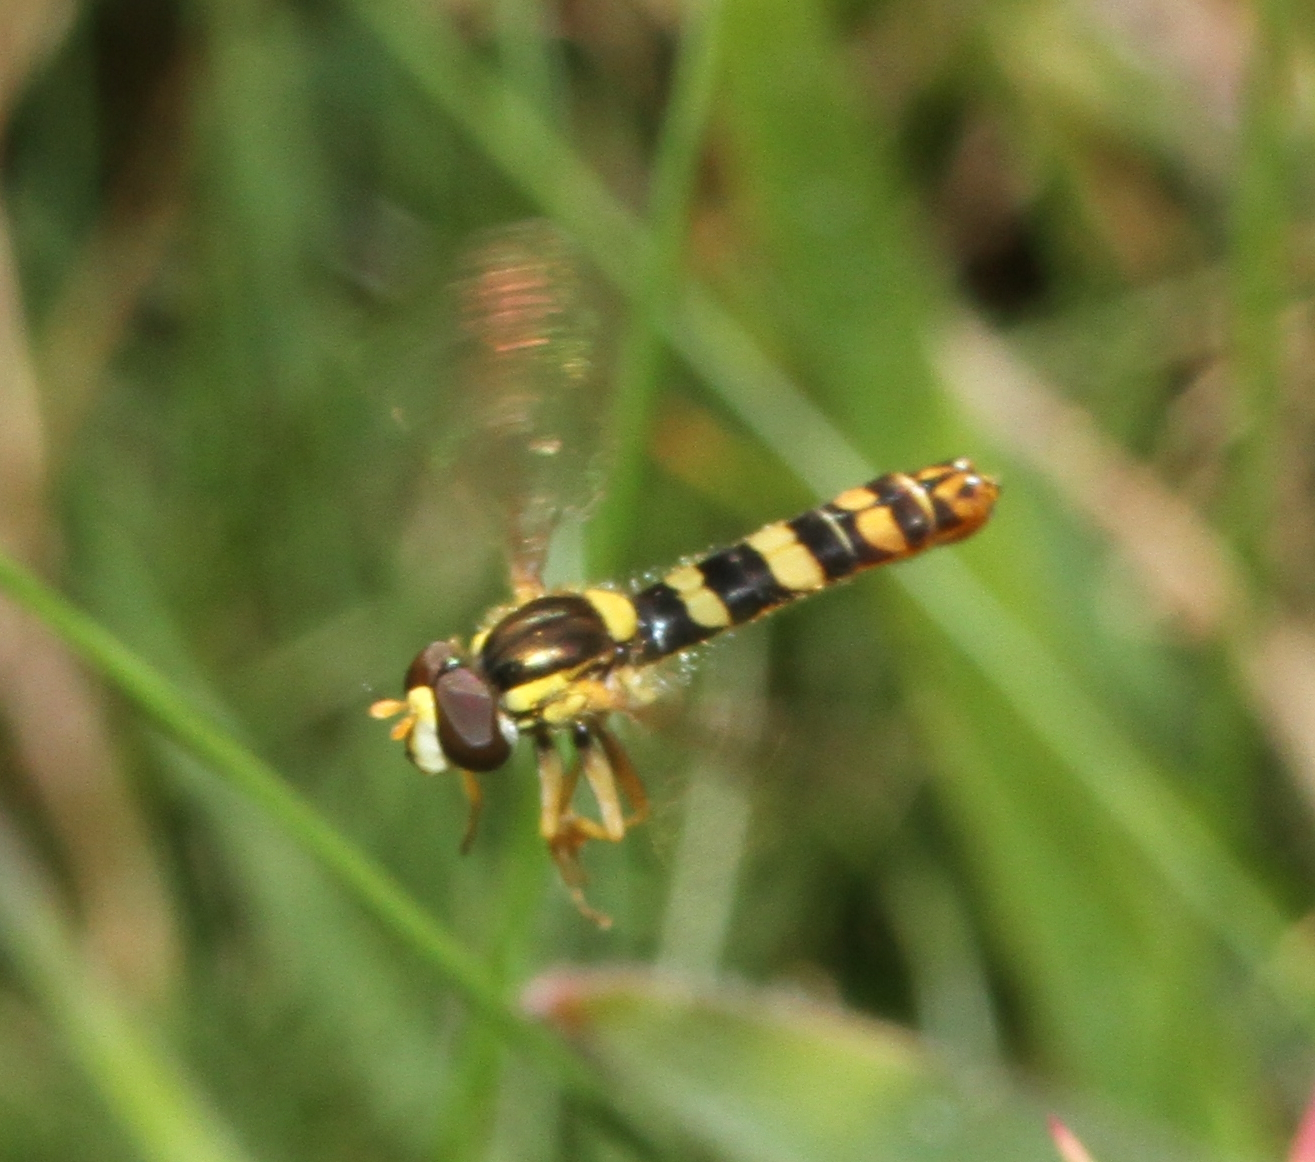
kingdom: Animalia
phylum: Arthropoda
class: Insecta
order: Diptera
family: Syrphidae
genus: Sphaerophoria
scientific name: Sphaerophoria
